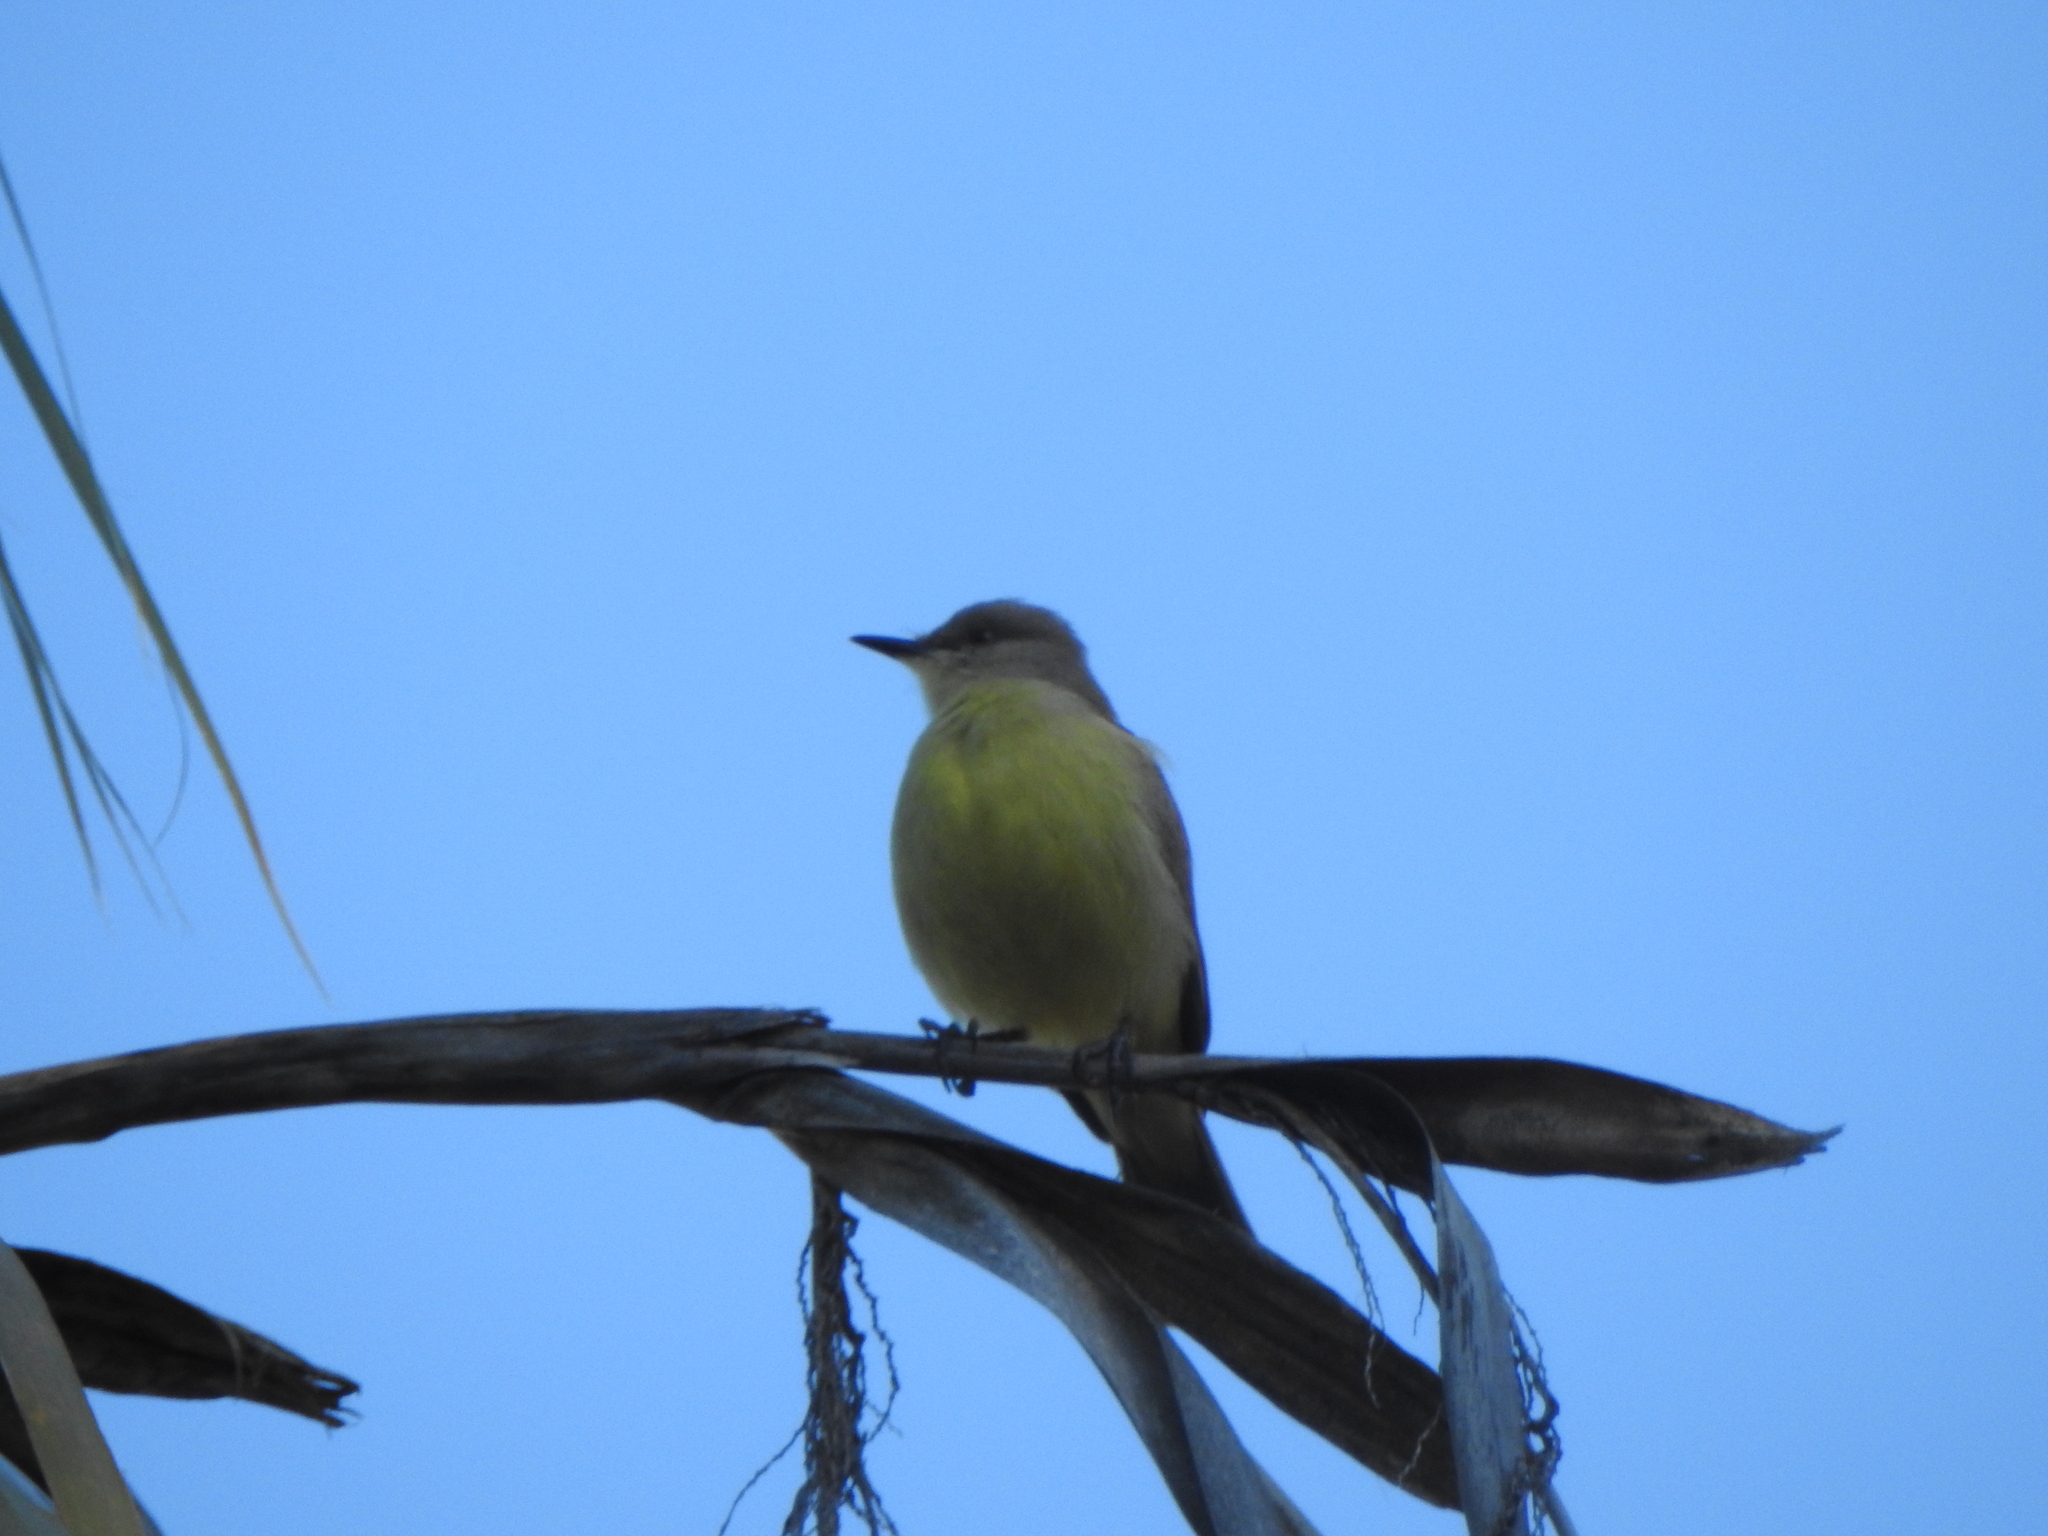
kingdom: Animalia
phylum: Chordata
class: Aves
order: Passeriformes
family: Tyrannidae
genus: Machetornis
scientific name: Machetornis rixosa
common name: Cattle tyrant
